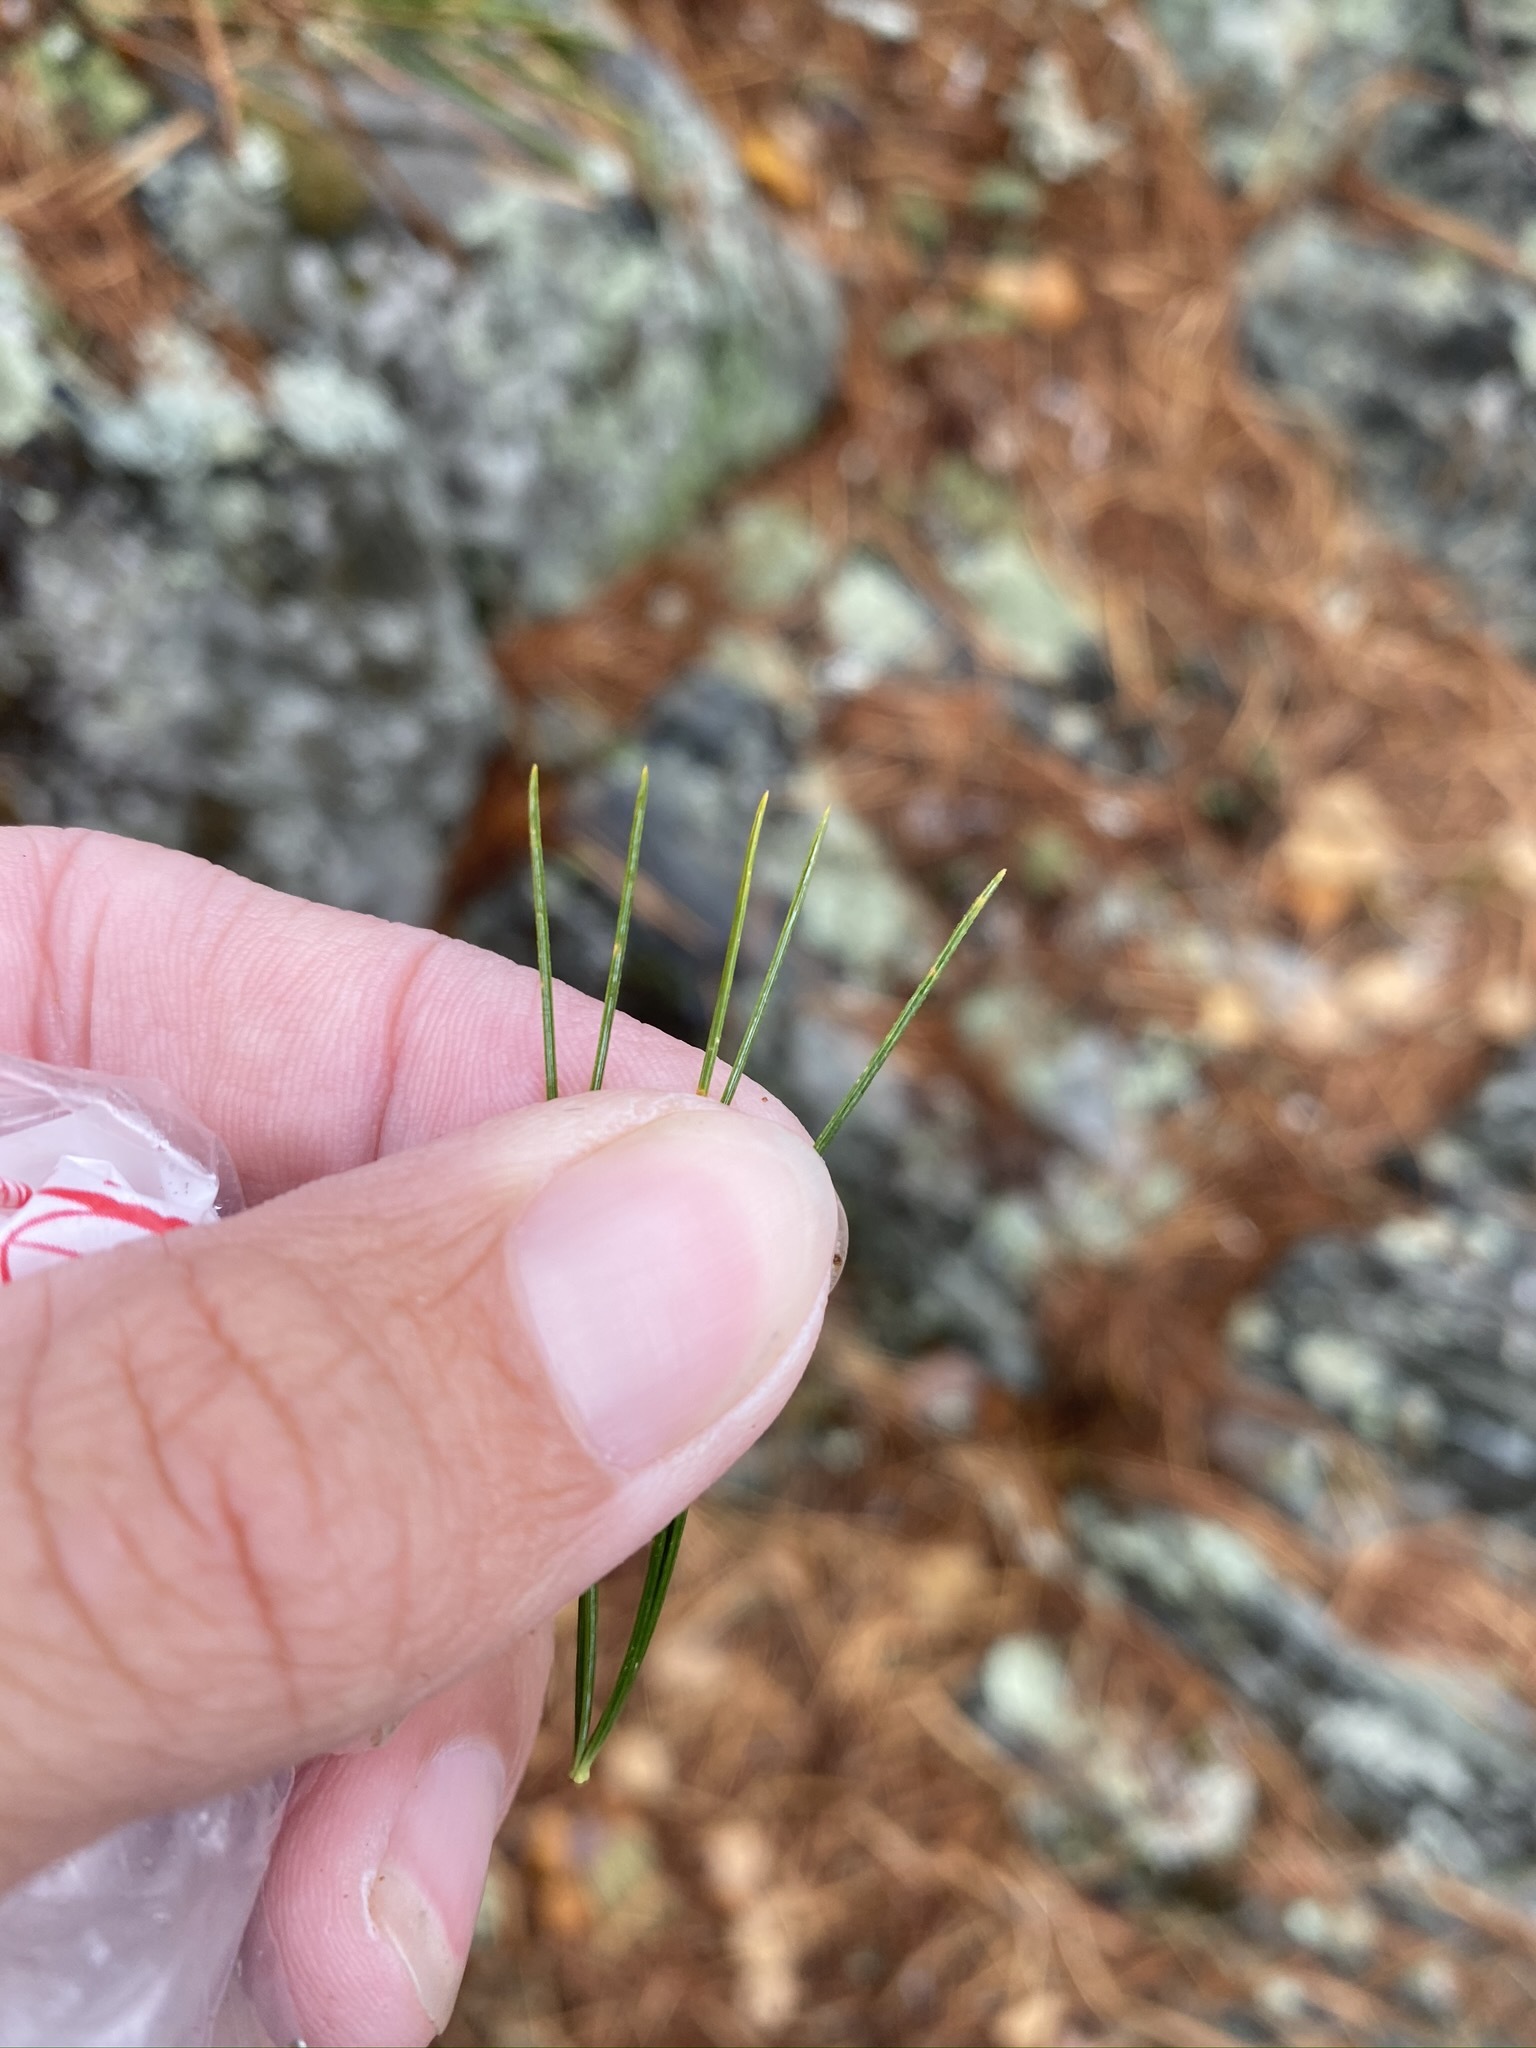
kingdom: Plantae
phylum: Tracheophyta
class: Pinopsida
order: Pinales
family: Pinaceae
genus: Pinus
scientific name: Pinus strobus
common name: Weymouth pine
